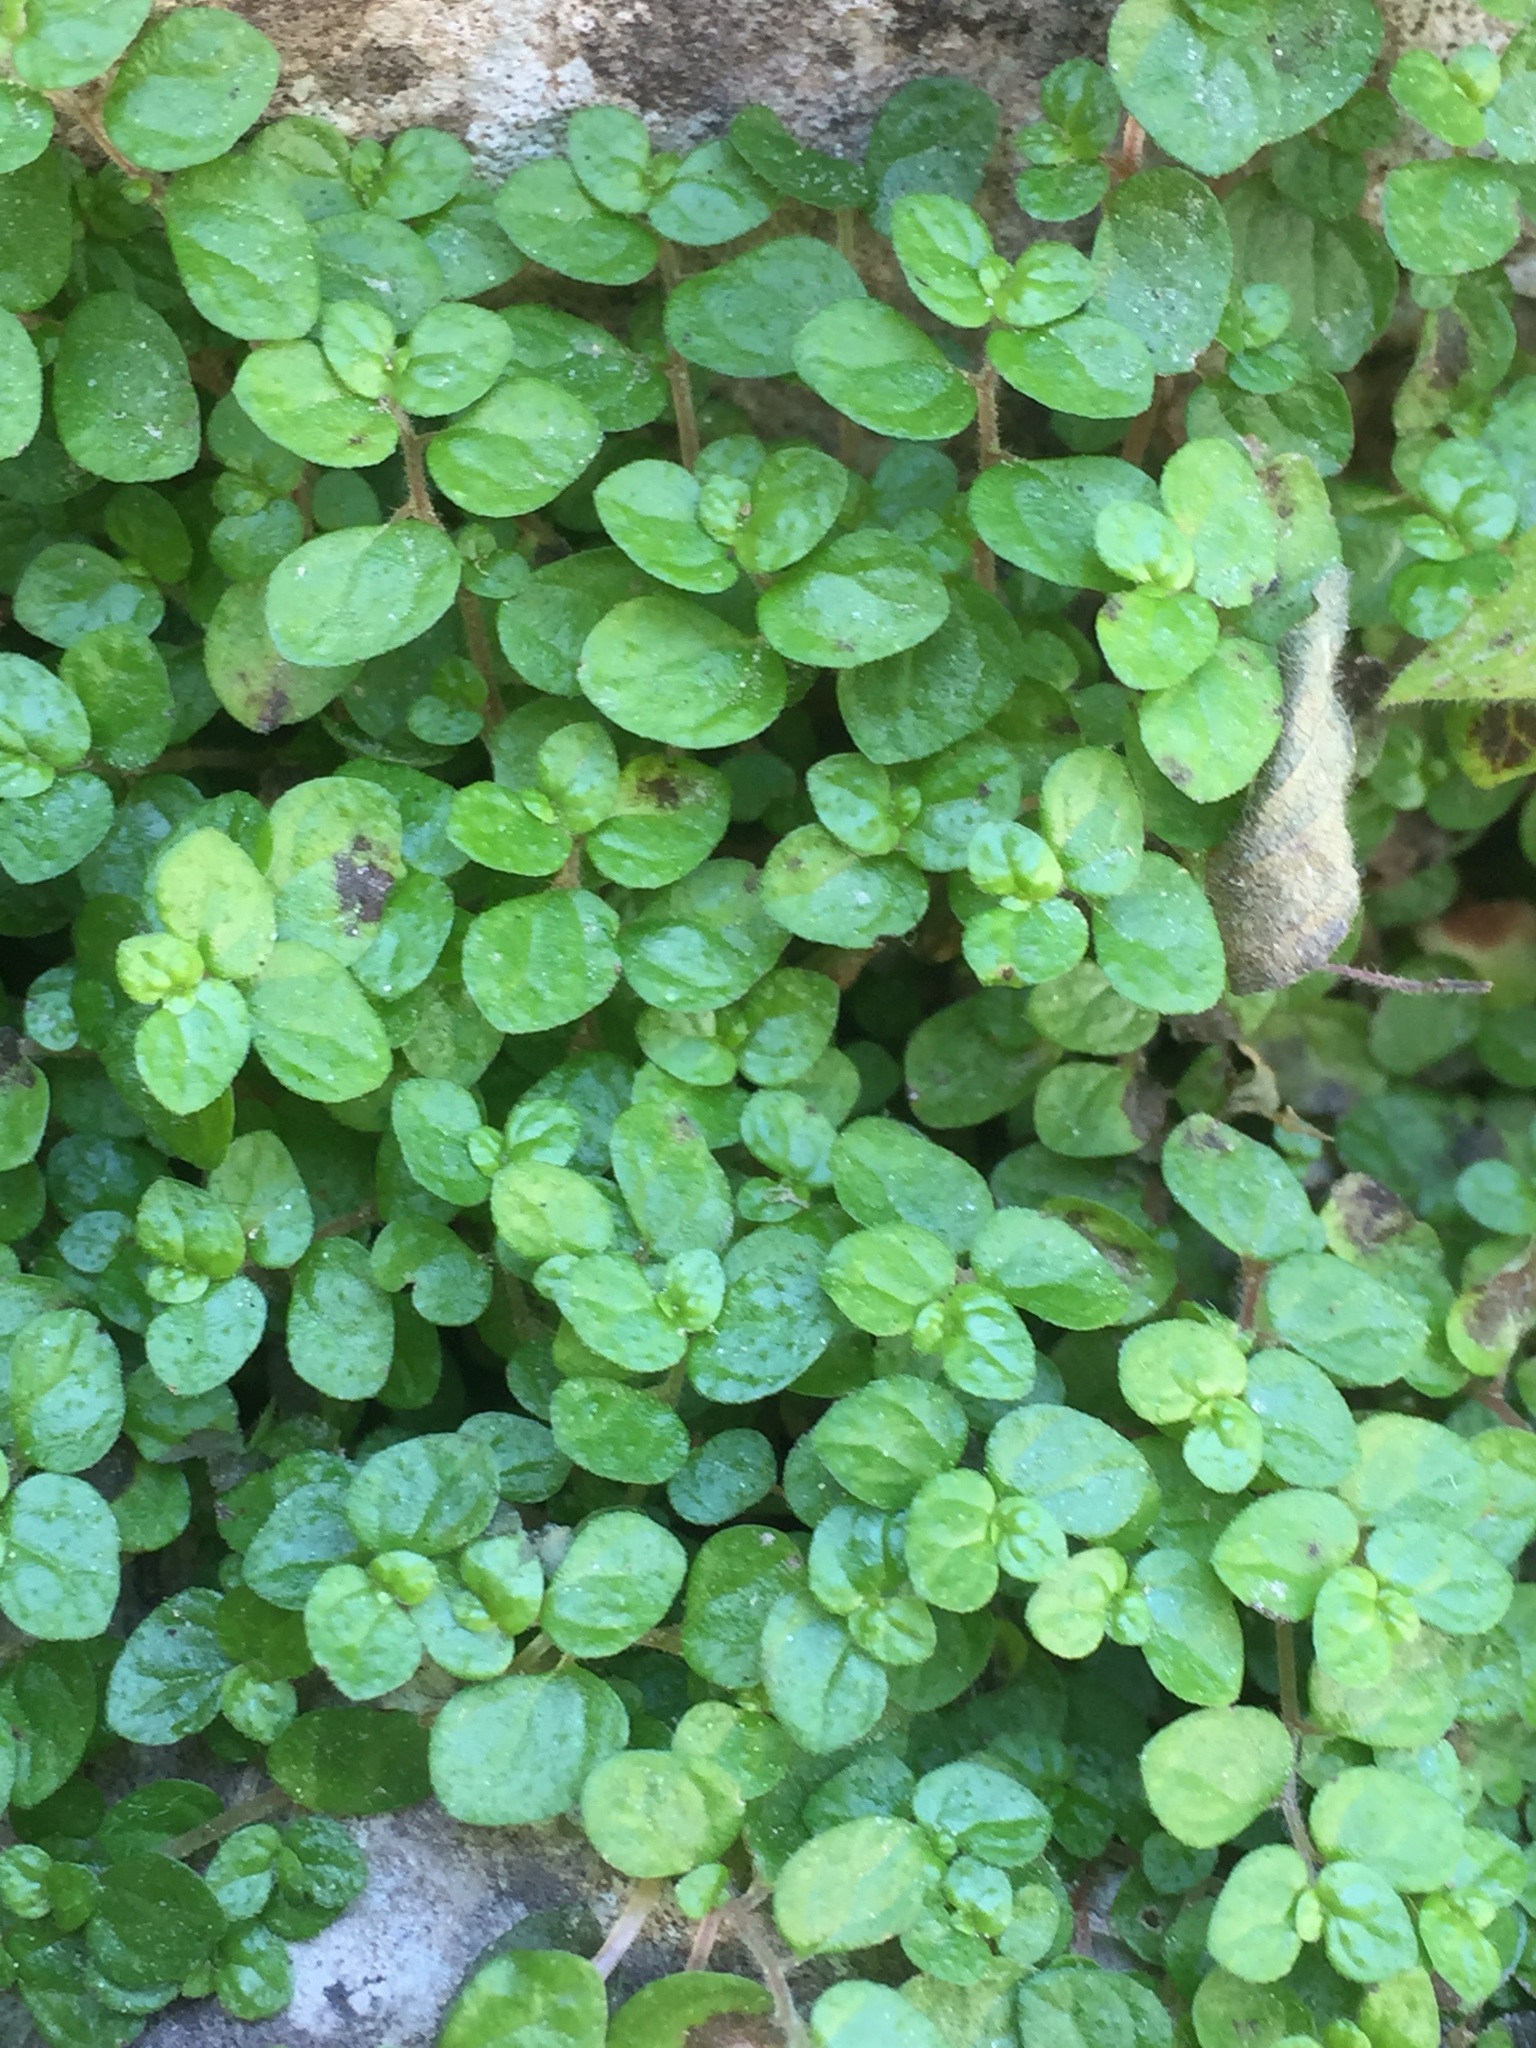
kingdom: Plantae
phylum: Tracheophyta
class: Magnoliopsida
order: Rosales
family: Urticaceae
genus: Soleirolia
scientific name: Soleirolia soleirolii
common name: Mind-your-own-business
